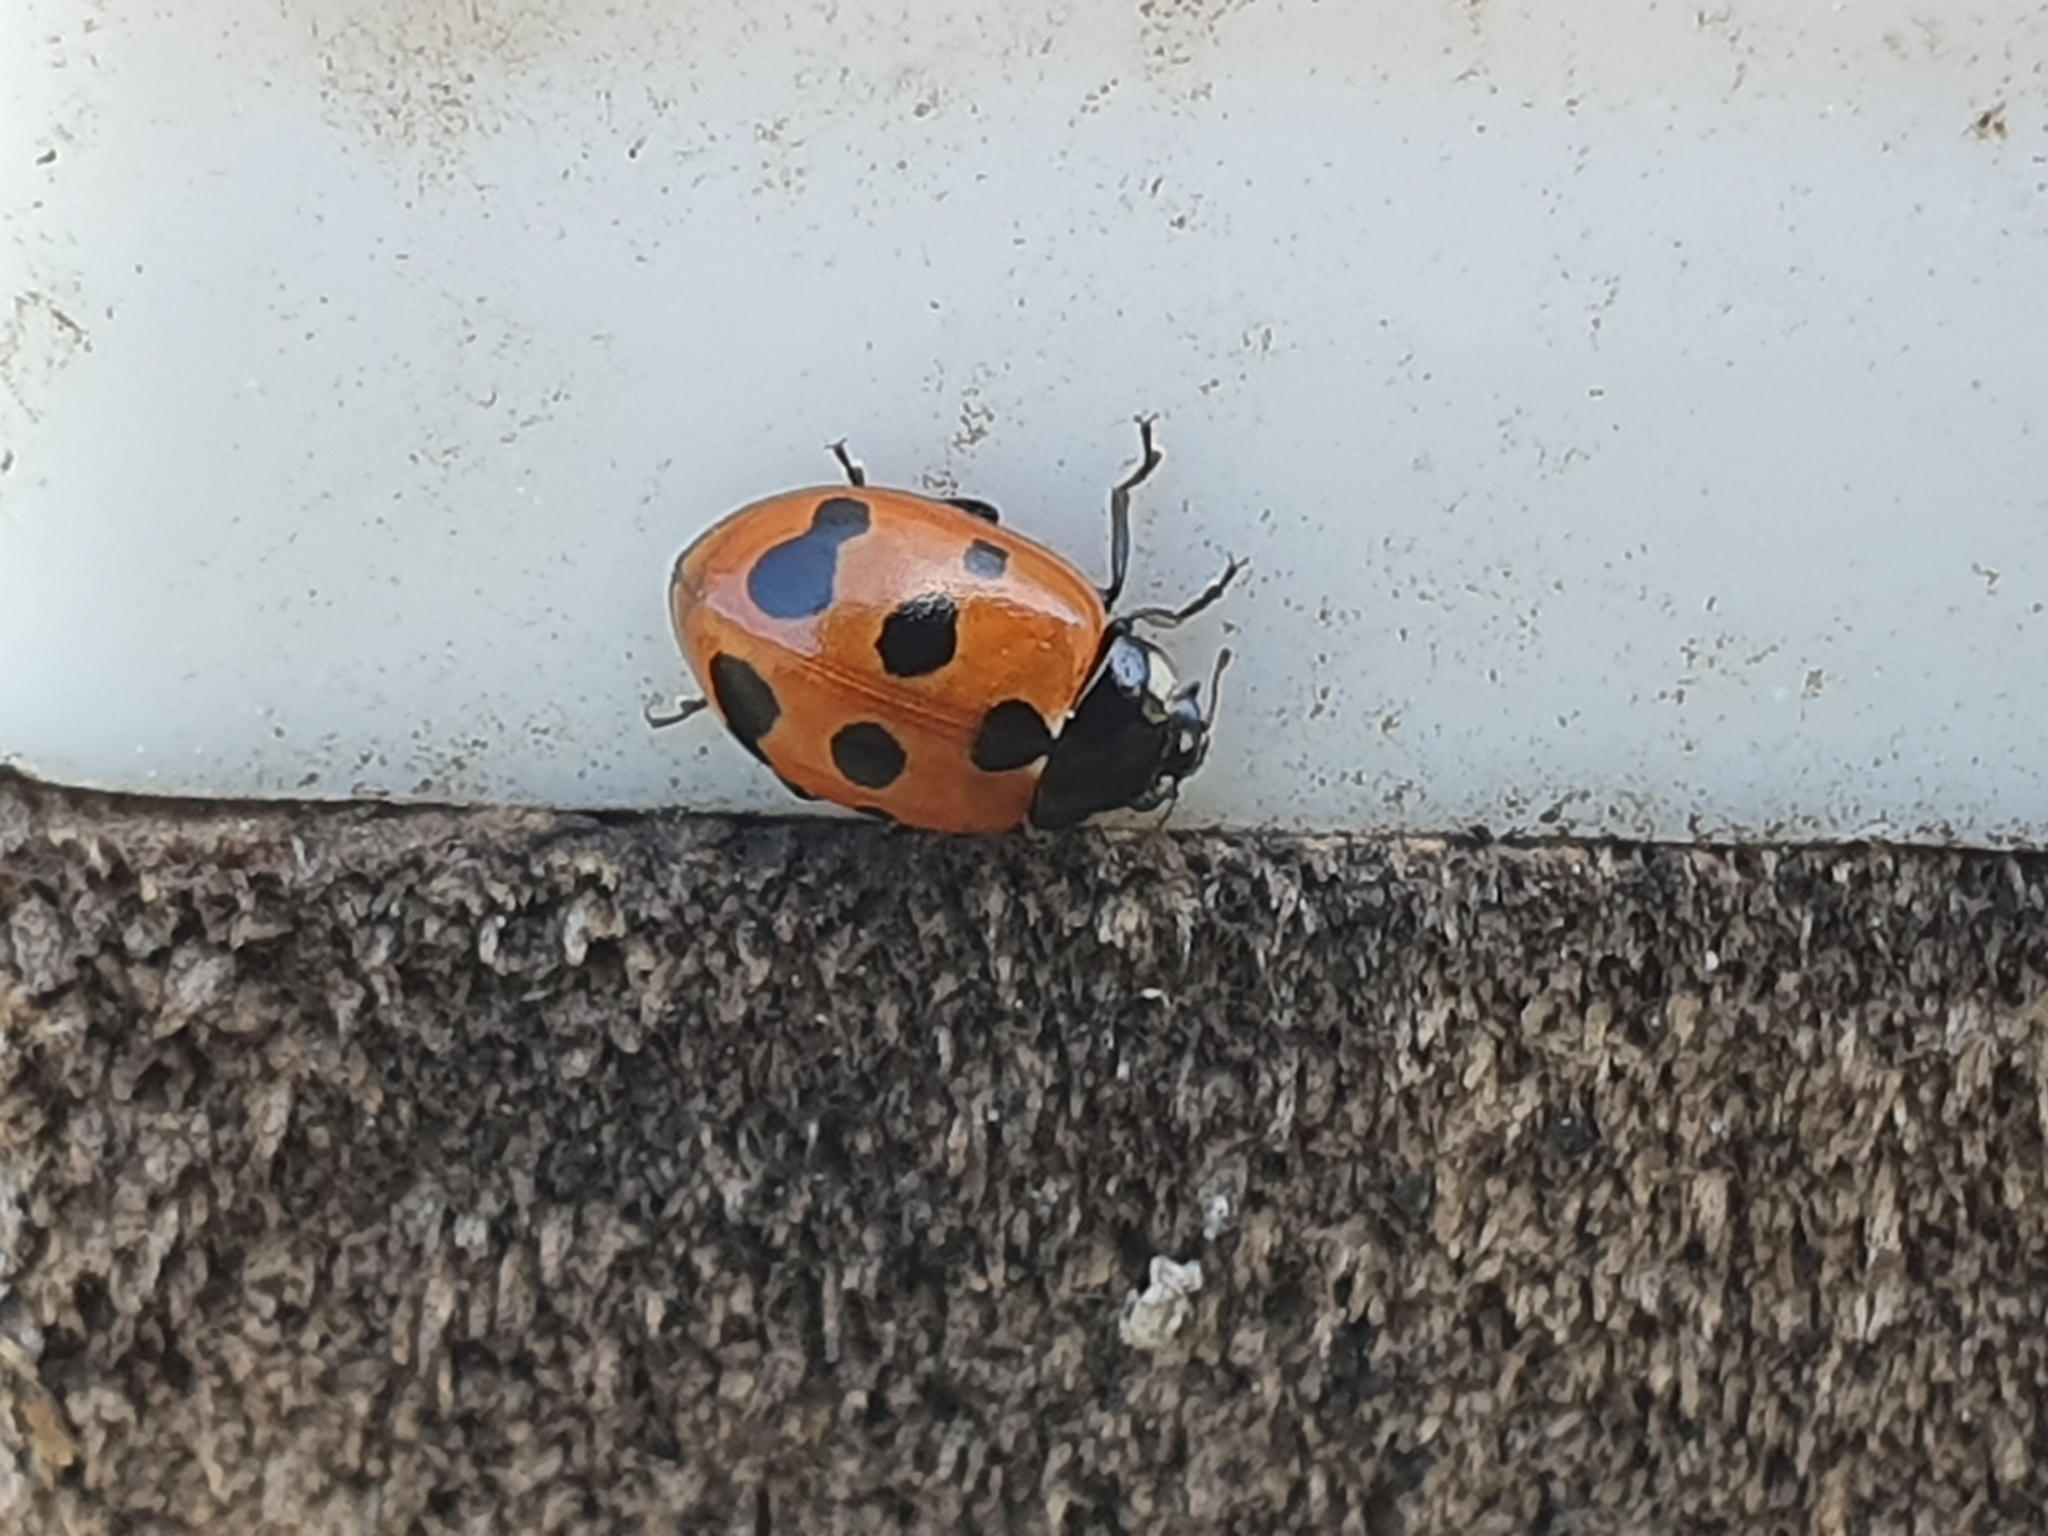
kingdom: Animalia
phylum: Arthropoda
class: Insecta
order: Coleoptera
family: Coccinellidae
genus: Coccinella
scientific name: Coccinella undecimpunctata
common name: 11-spot ladybird
